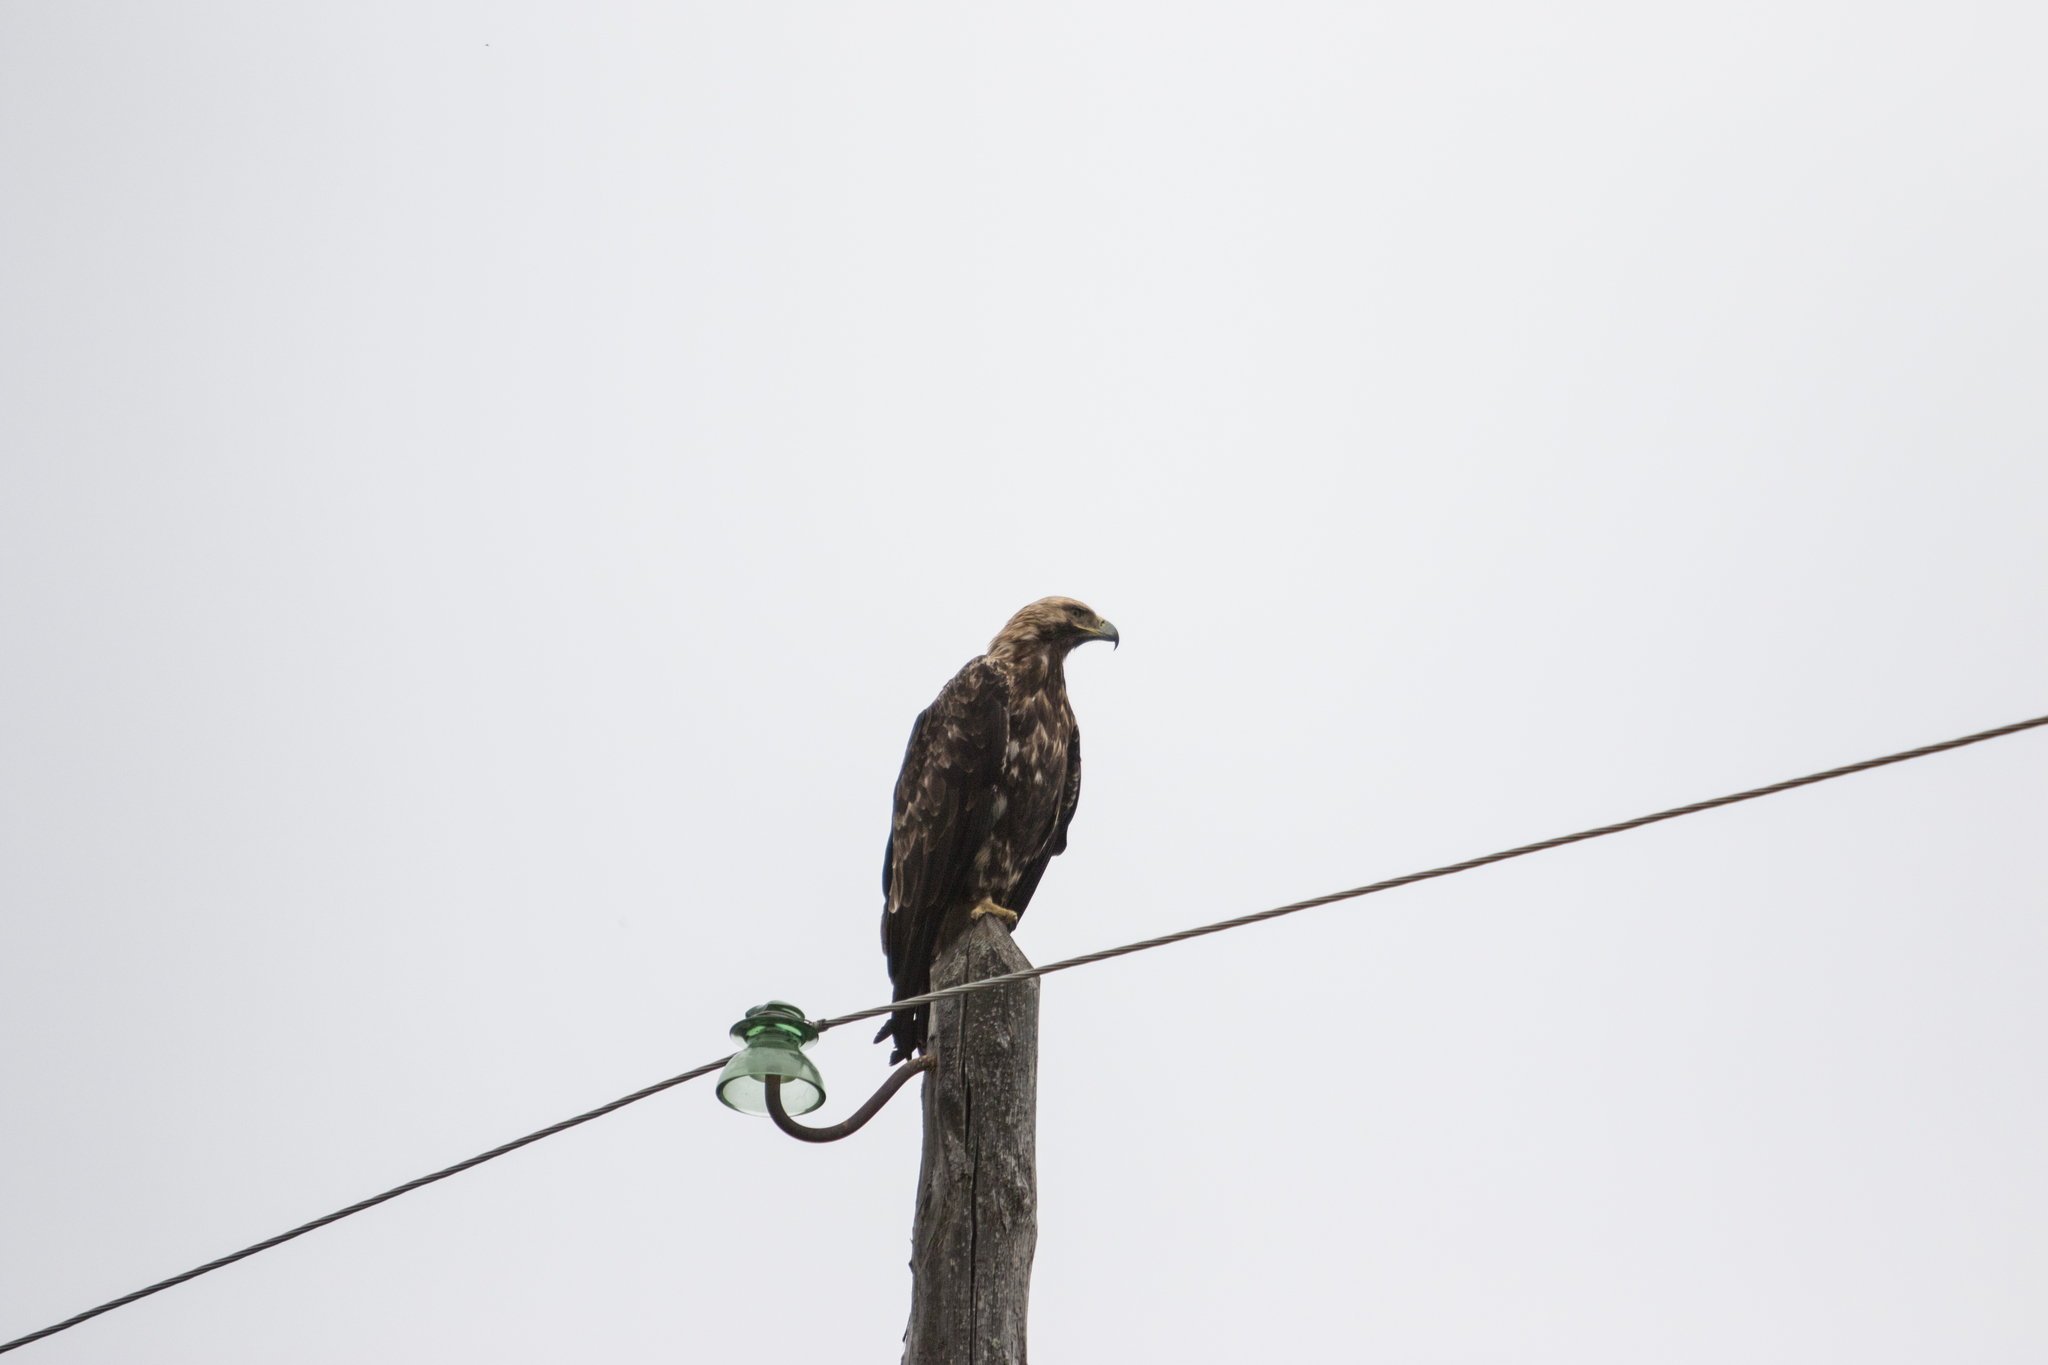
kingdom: Animalia
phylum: Chordata
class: Aves
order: Accipitriformes
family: Accipitridae
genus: Aquila
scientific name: Aquila heliaca
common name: Eastern imperial eagle
